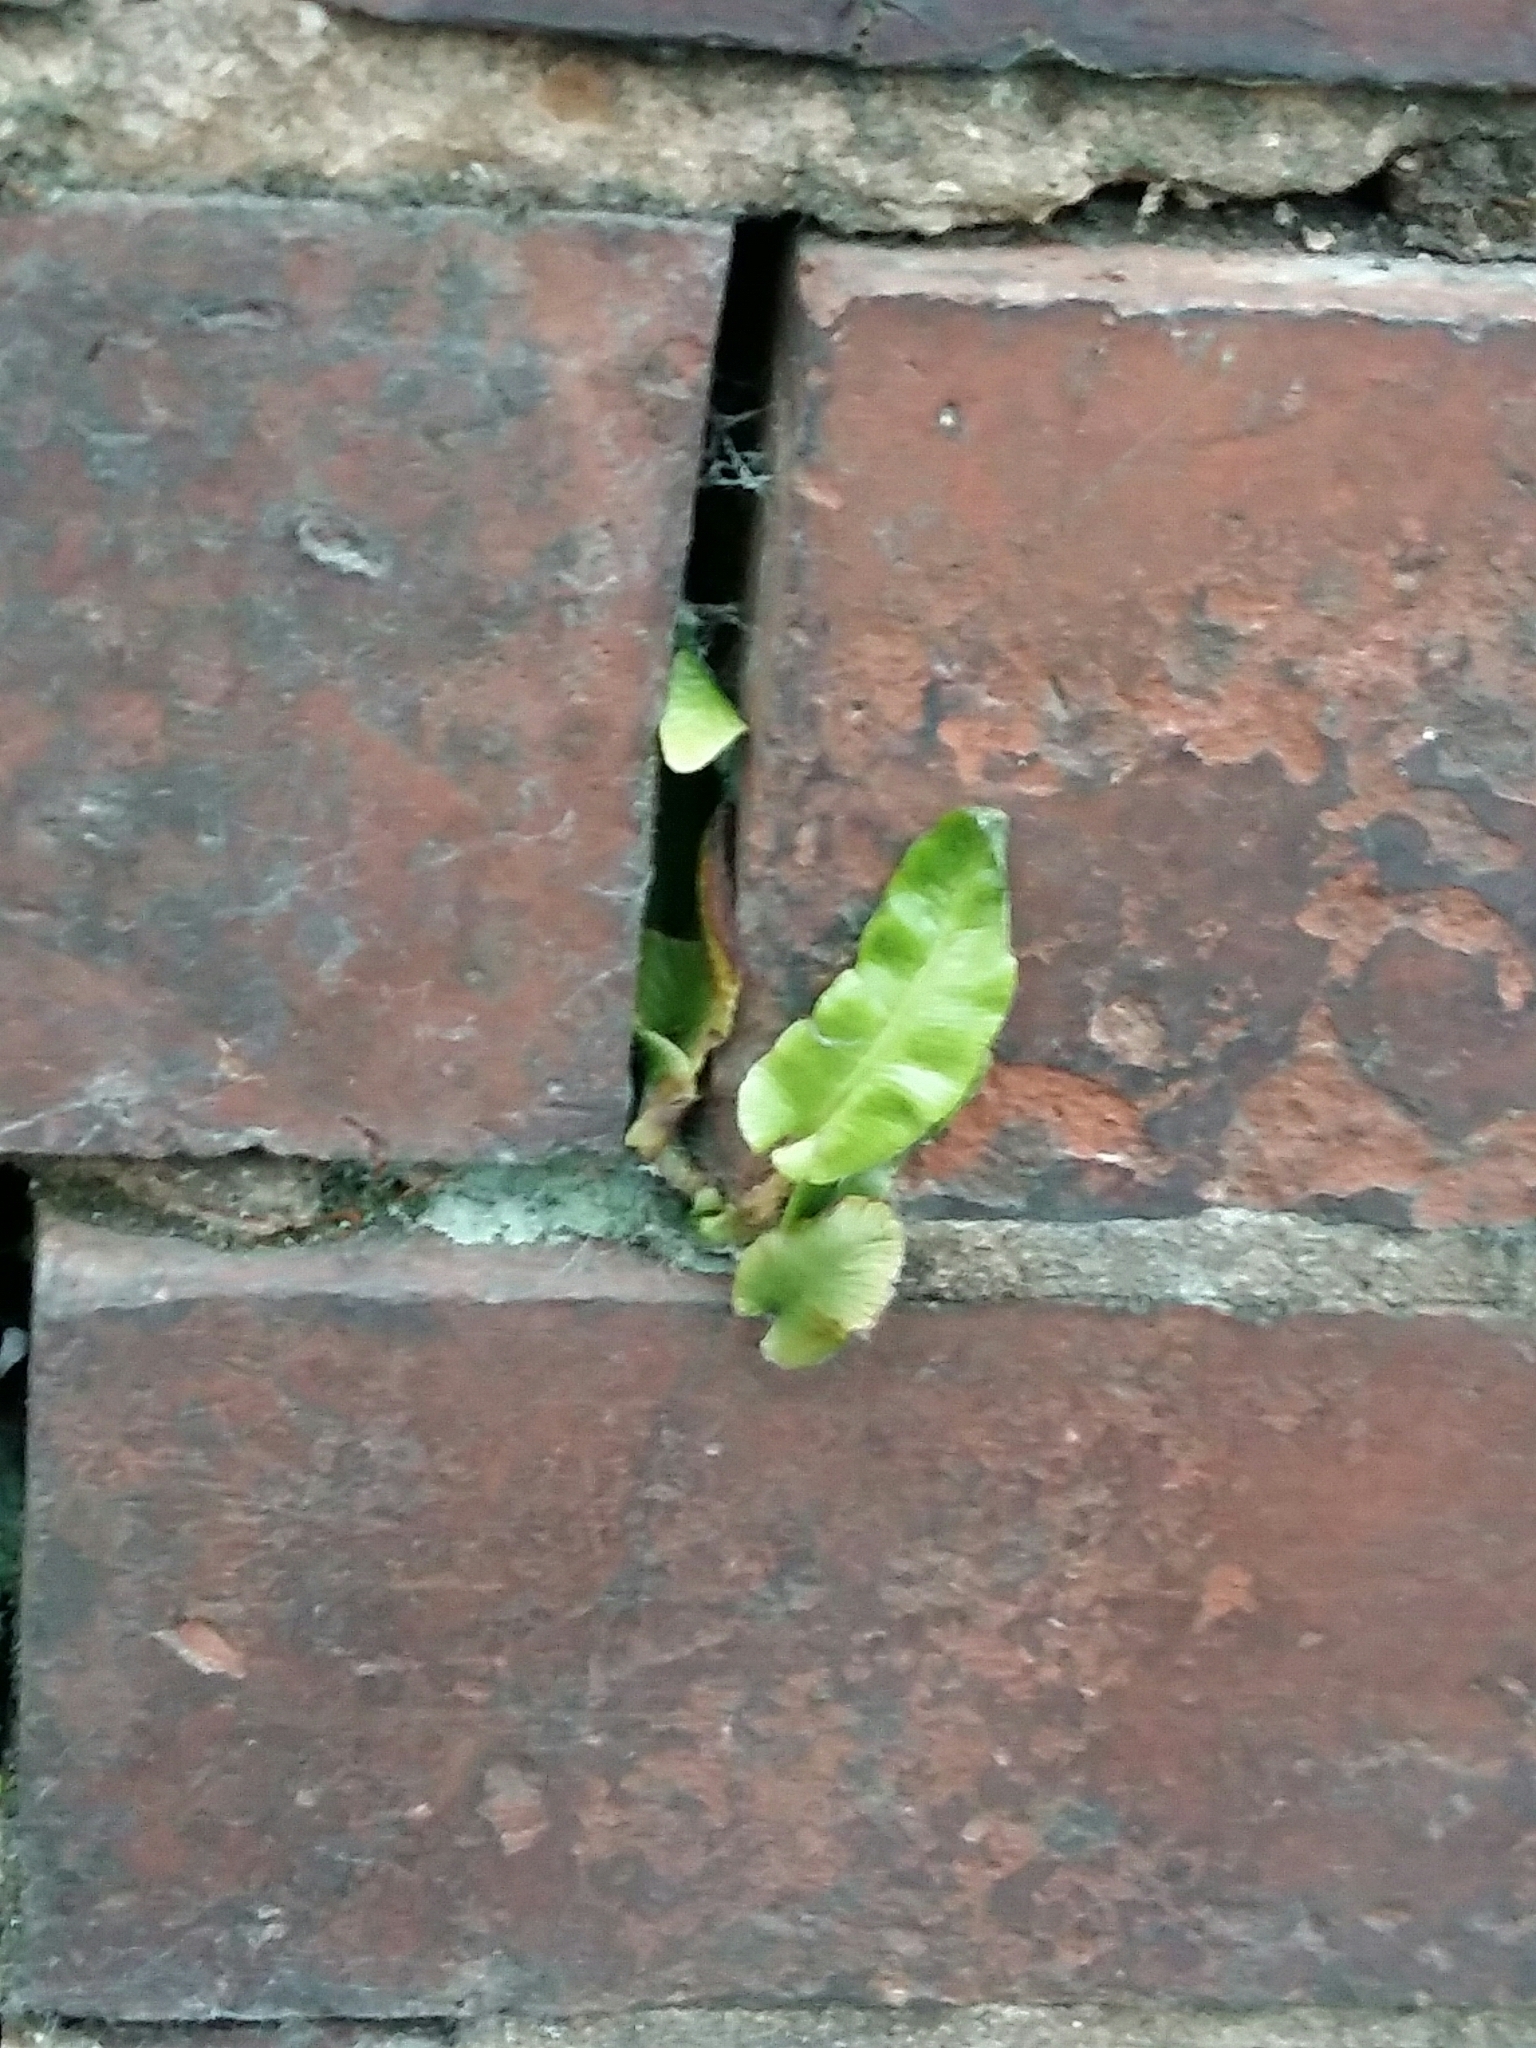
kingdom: Plantae
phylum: Tracheophyta
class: Polypodiopsida
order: Polypodiales
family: Aspleniaceae
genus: Asplenium
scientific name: Asplenium scolopendrium
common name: Hart's-tongue fern
